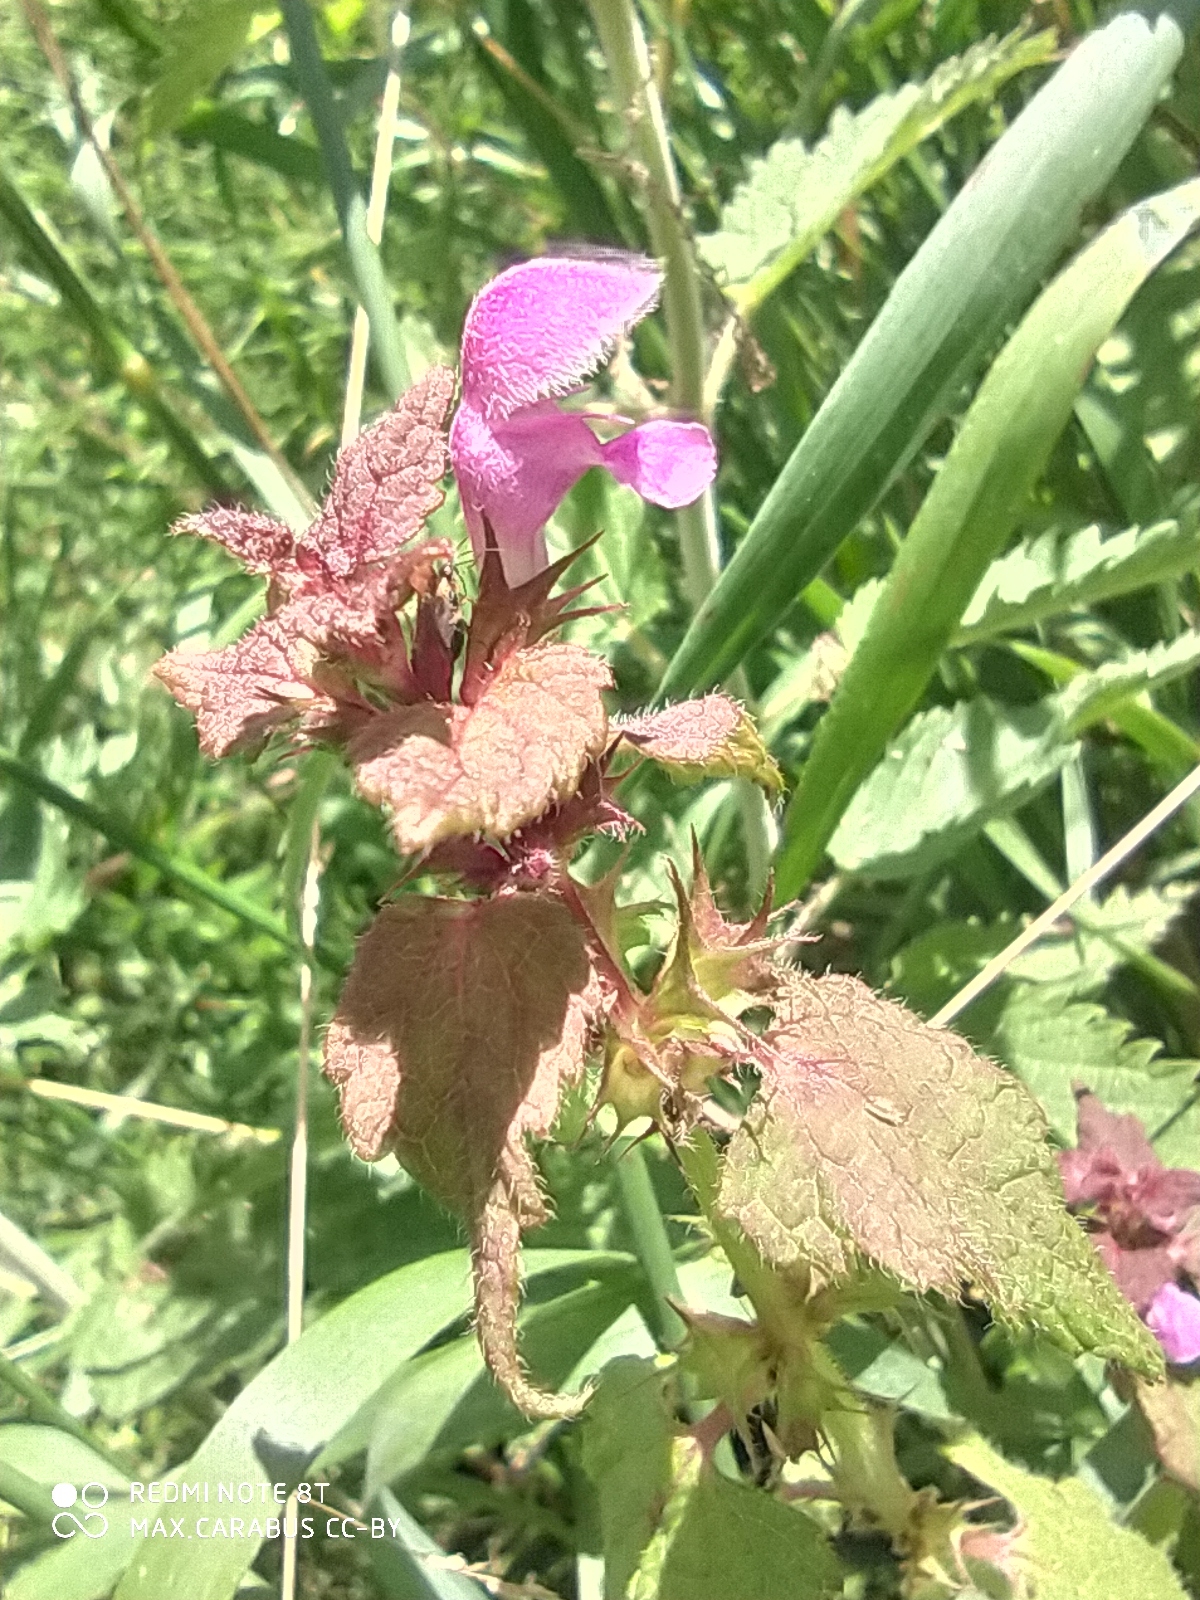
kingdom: Plantae
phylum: Tracheophyta
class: Magnoliopsida
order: Lamiales
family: Lamiaceae
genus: Lamium
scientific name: Lamium maculatum
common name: Spotted dead-nettle
